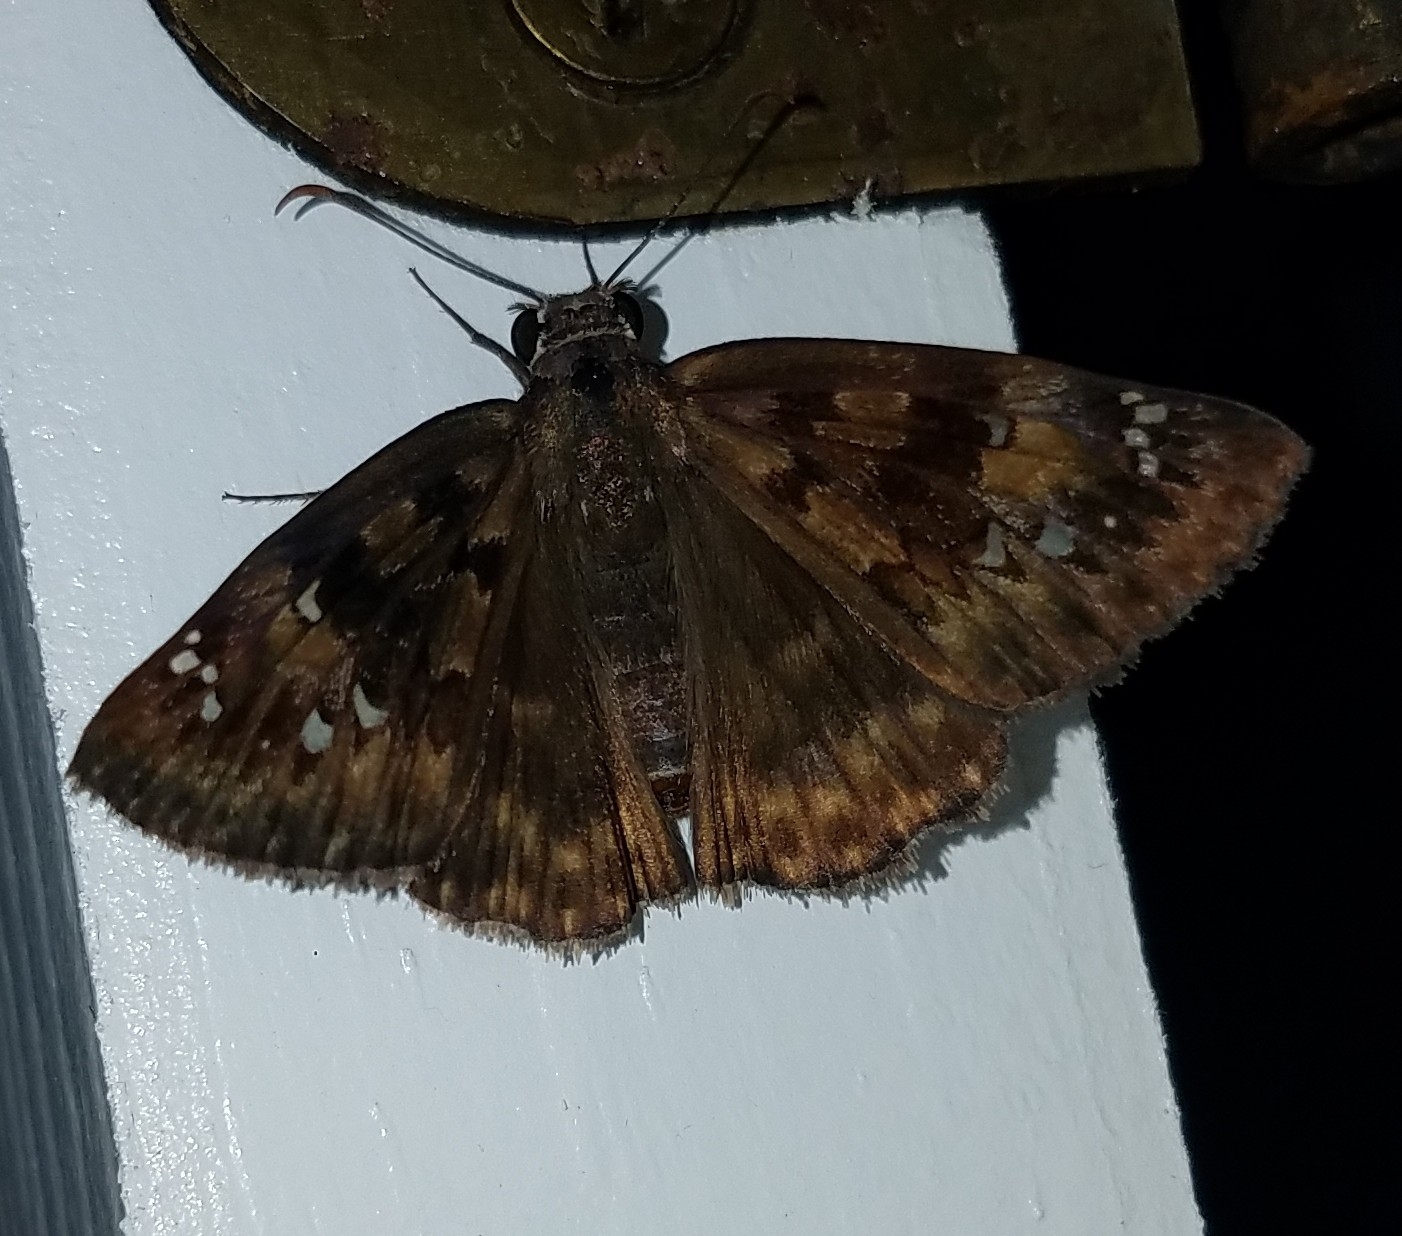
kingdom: Animalia
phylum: Arthropoda
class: Insecta
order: Lepidoptera
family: Hesperiidae
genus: Erynnis
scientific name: Erynnis horatius
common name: Horace's duskywing
